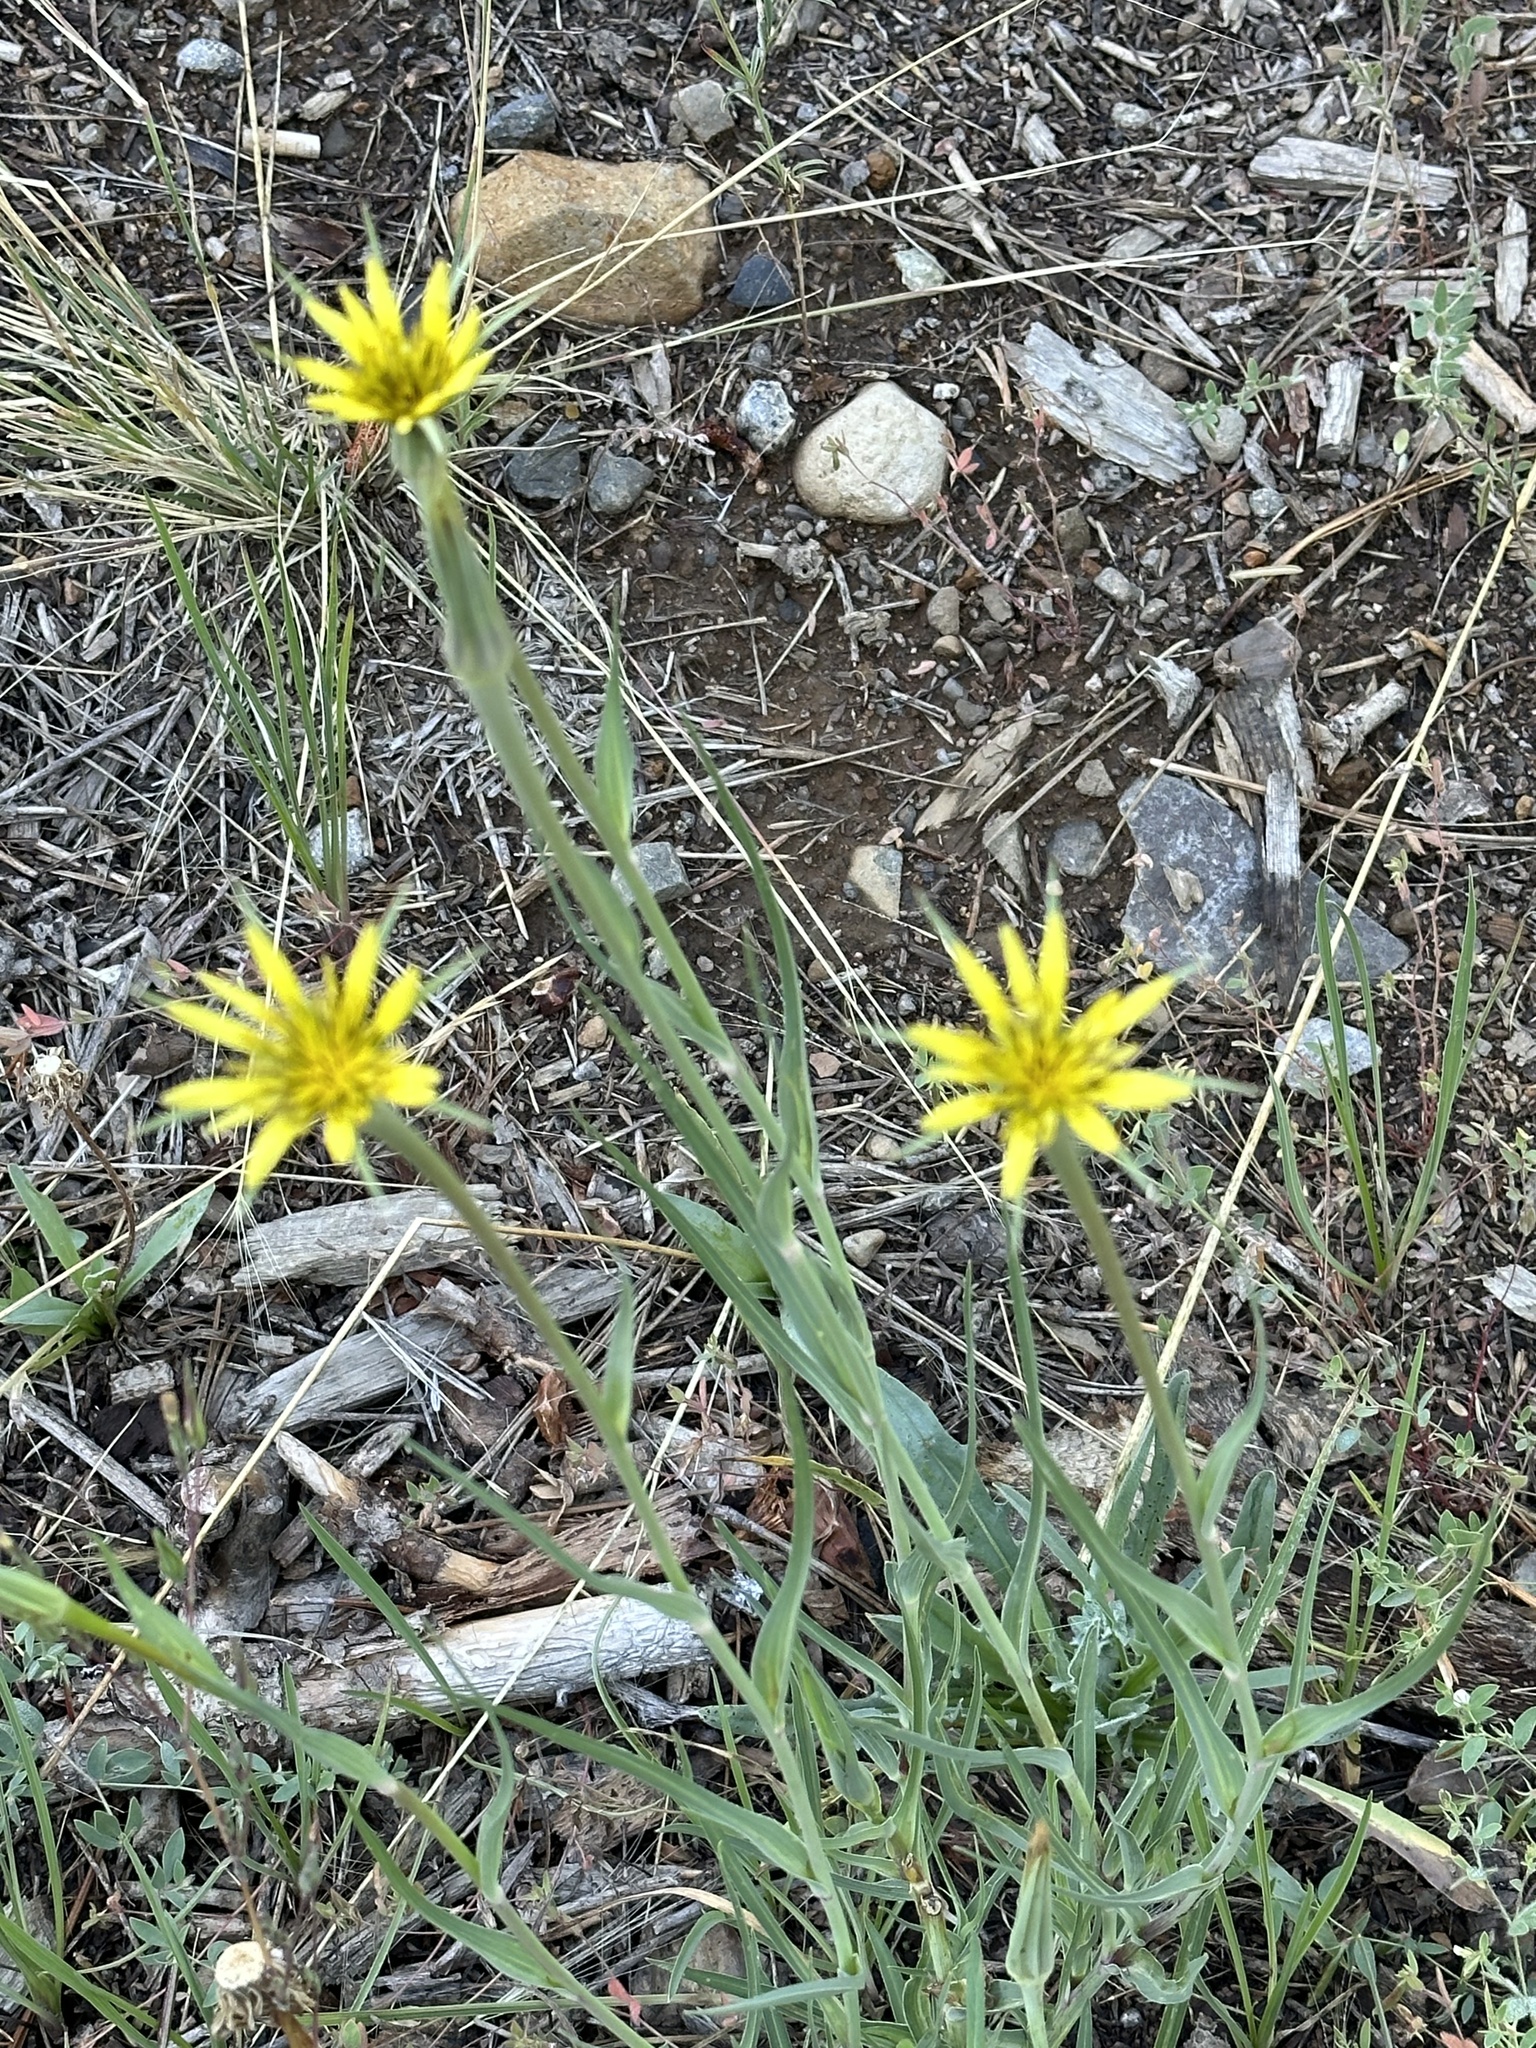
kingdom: Plantae
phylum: Tracheophyta
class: Magnoliopsida
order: Asterales
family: Asteraceae
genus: Tragopogon
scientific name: Tragopogon dubius
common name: Yellow salsify
